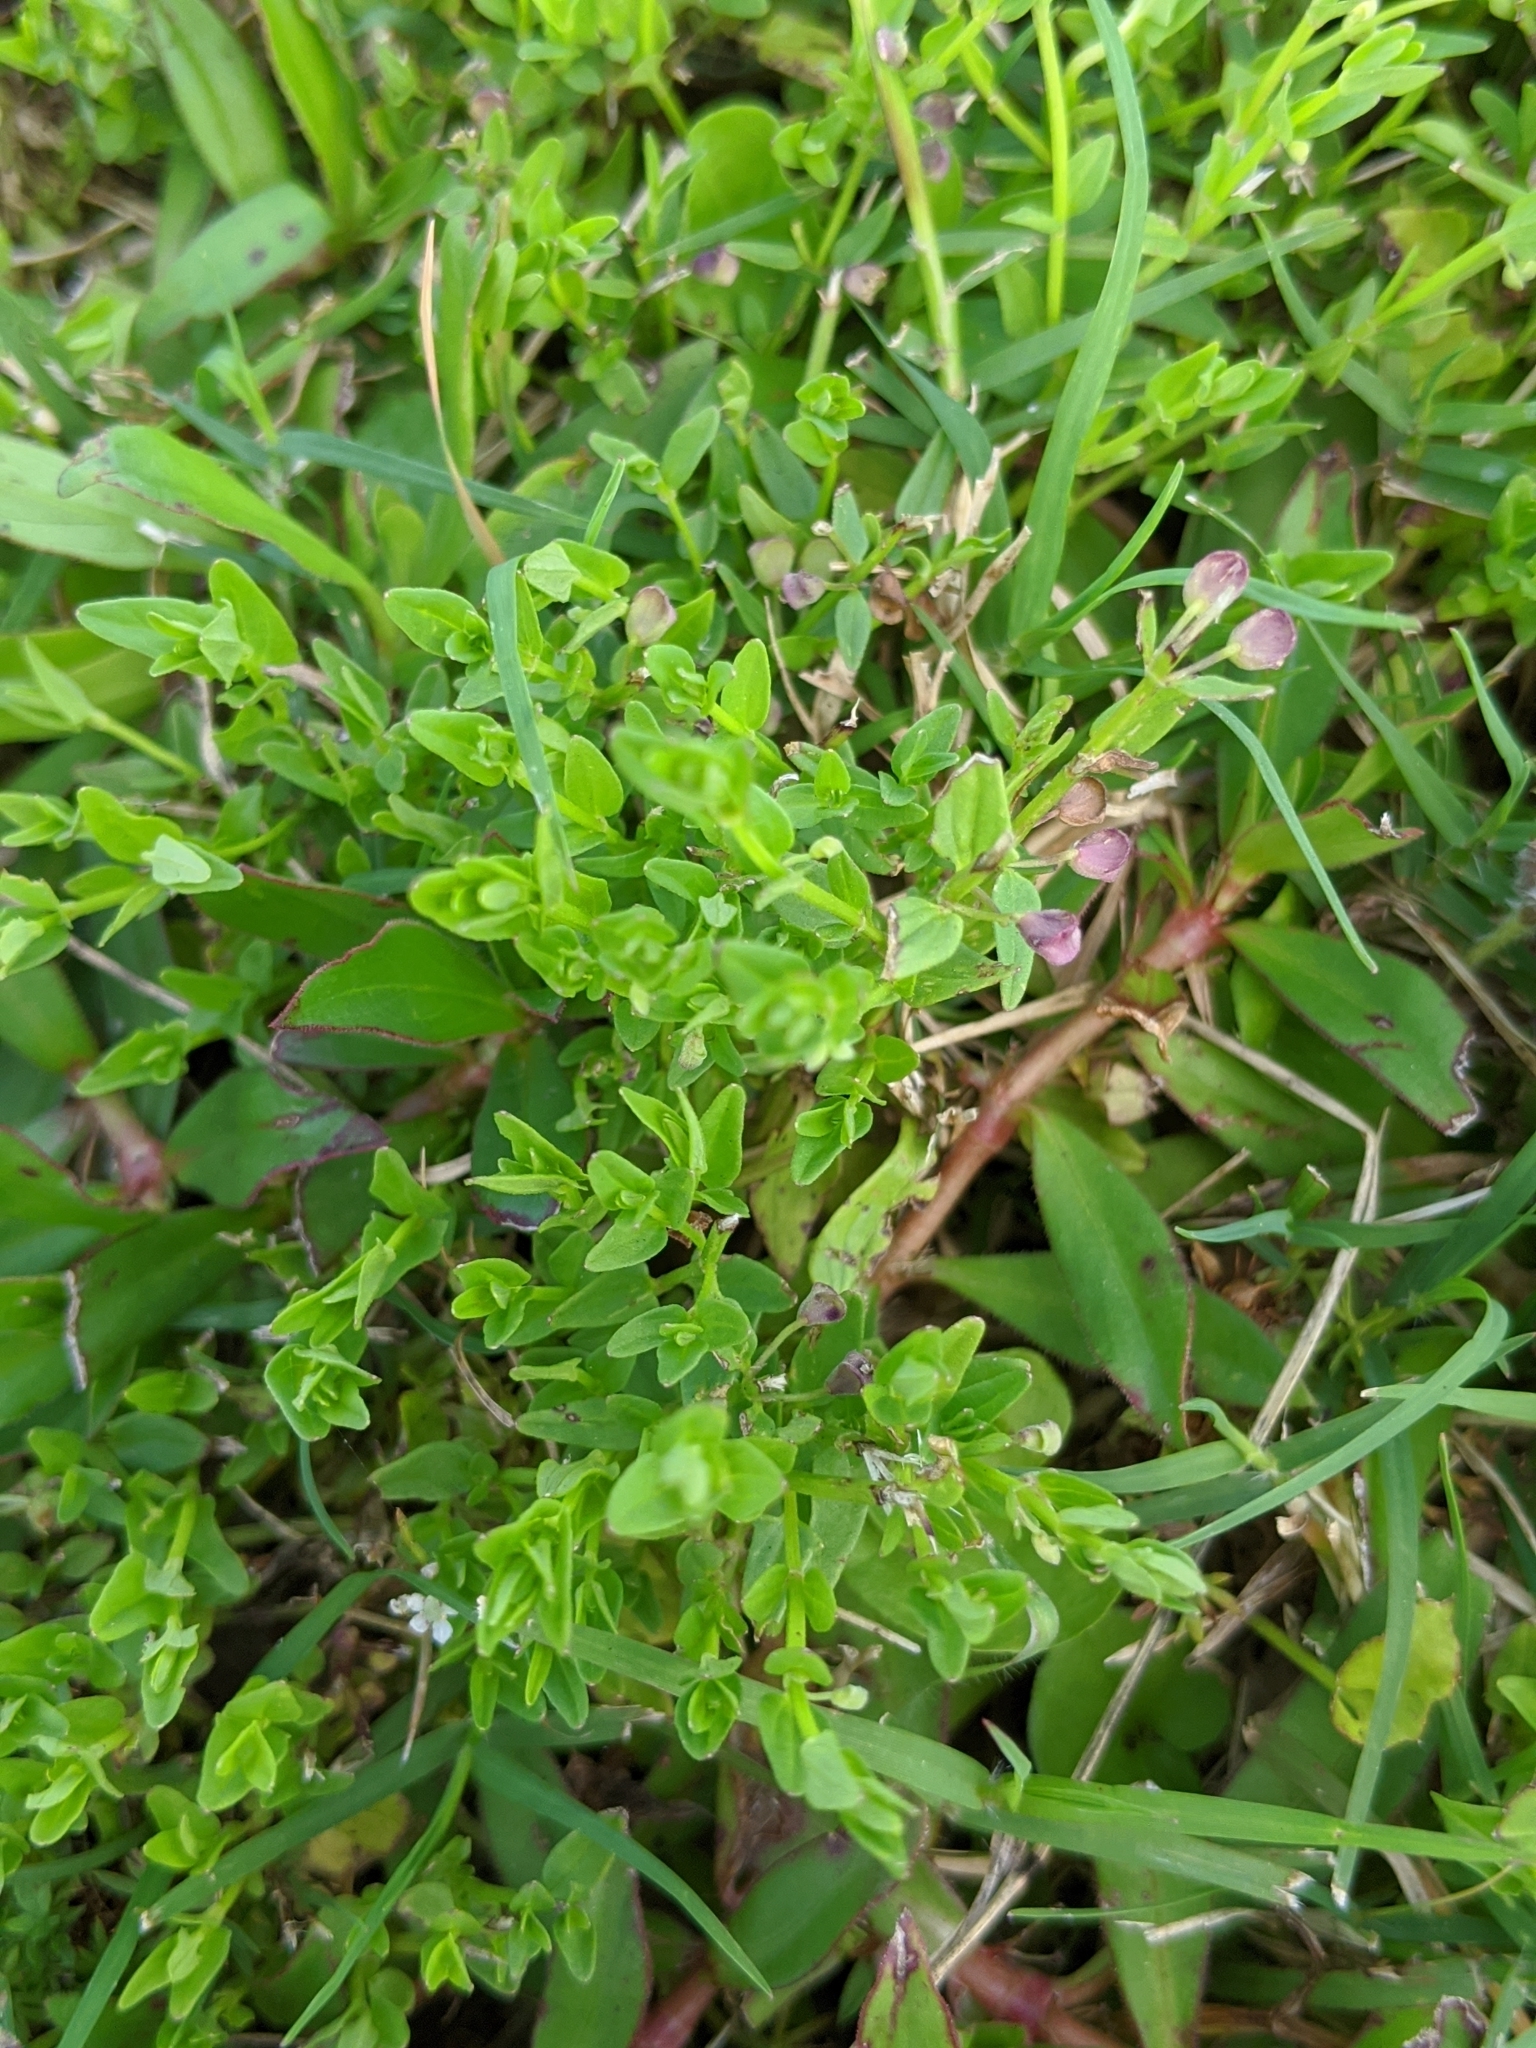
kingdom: Plantae
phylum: Tracheophyta
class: Magnoliopsida
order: Lamiales
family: Lamiaceae
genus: Scutellaria
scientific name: Scutellaria racemosa
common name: South american skullcap
